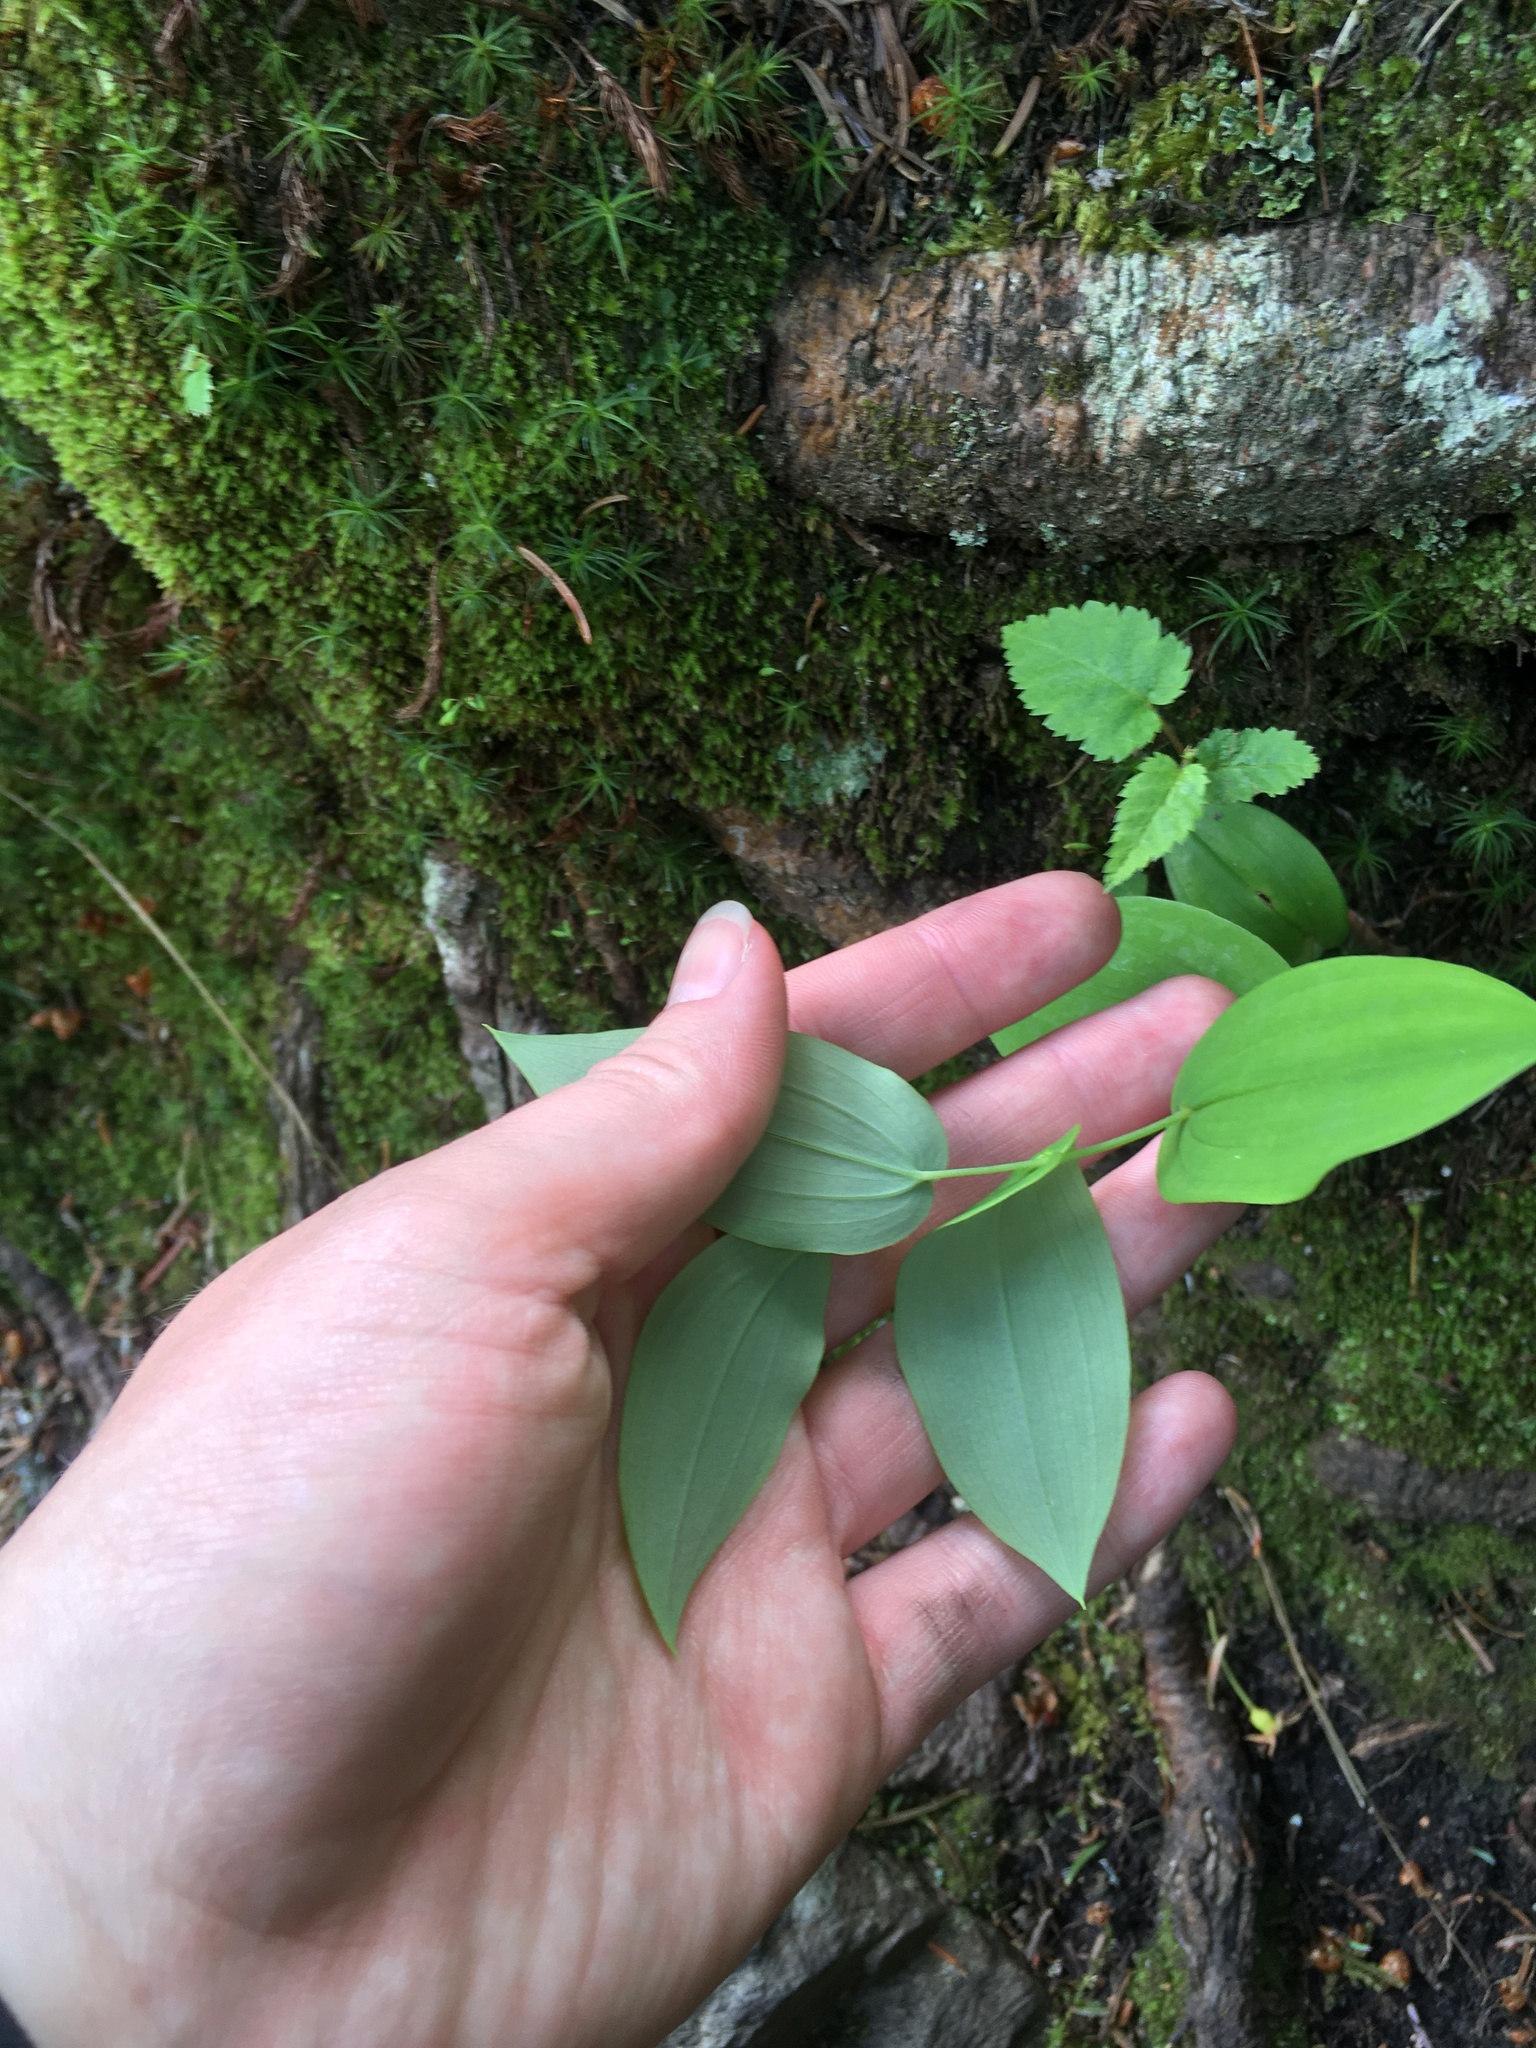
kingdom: Plantae
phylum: Tracheophyta
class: Liliopsida
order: Liliales
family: Liliaceae
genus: Streptopus
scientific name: Streptopus amplexifolius
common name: Clasp twisted stalk
